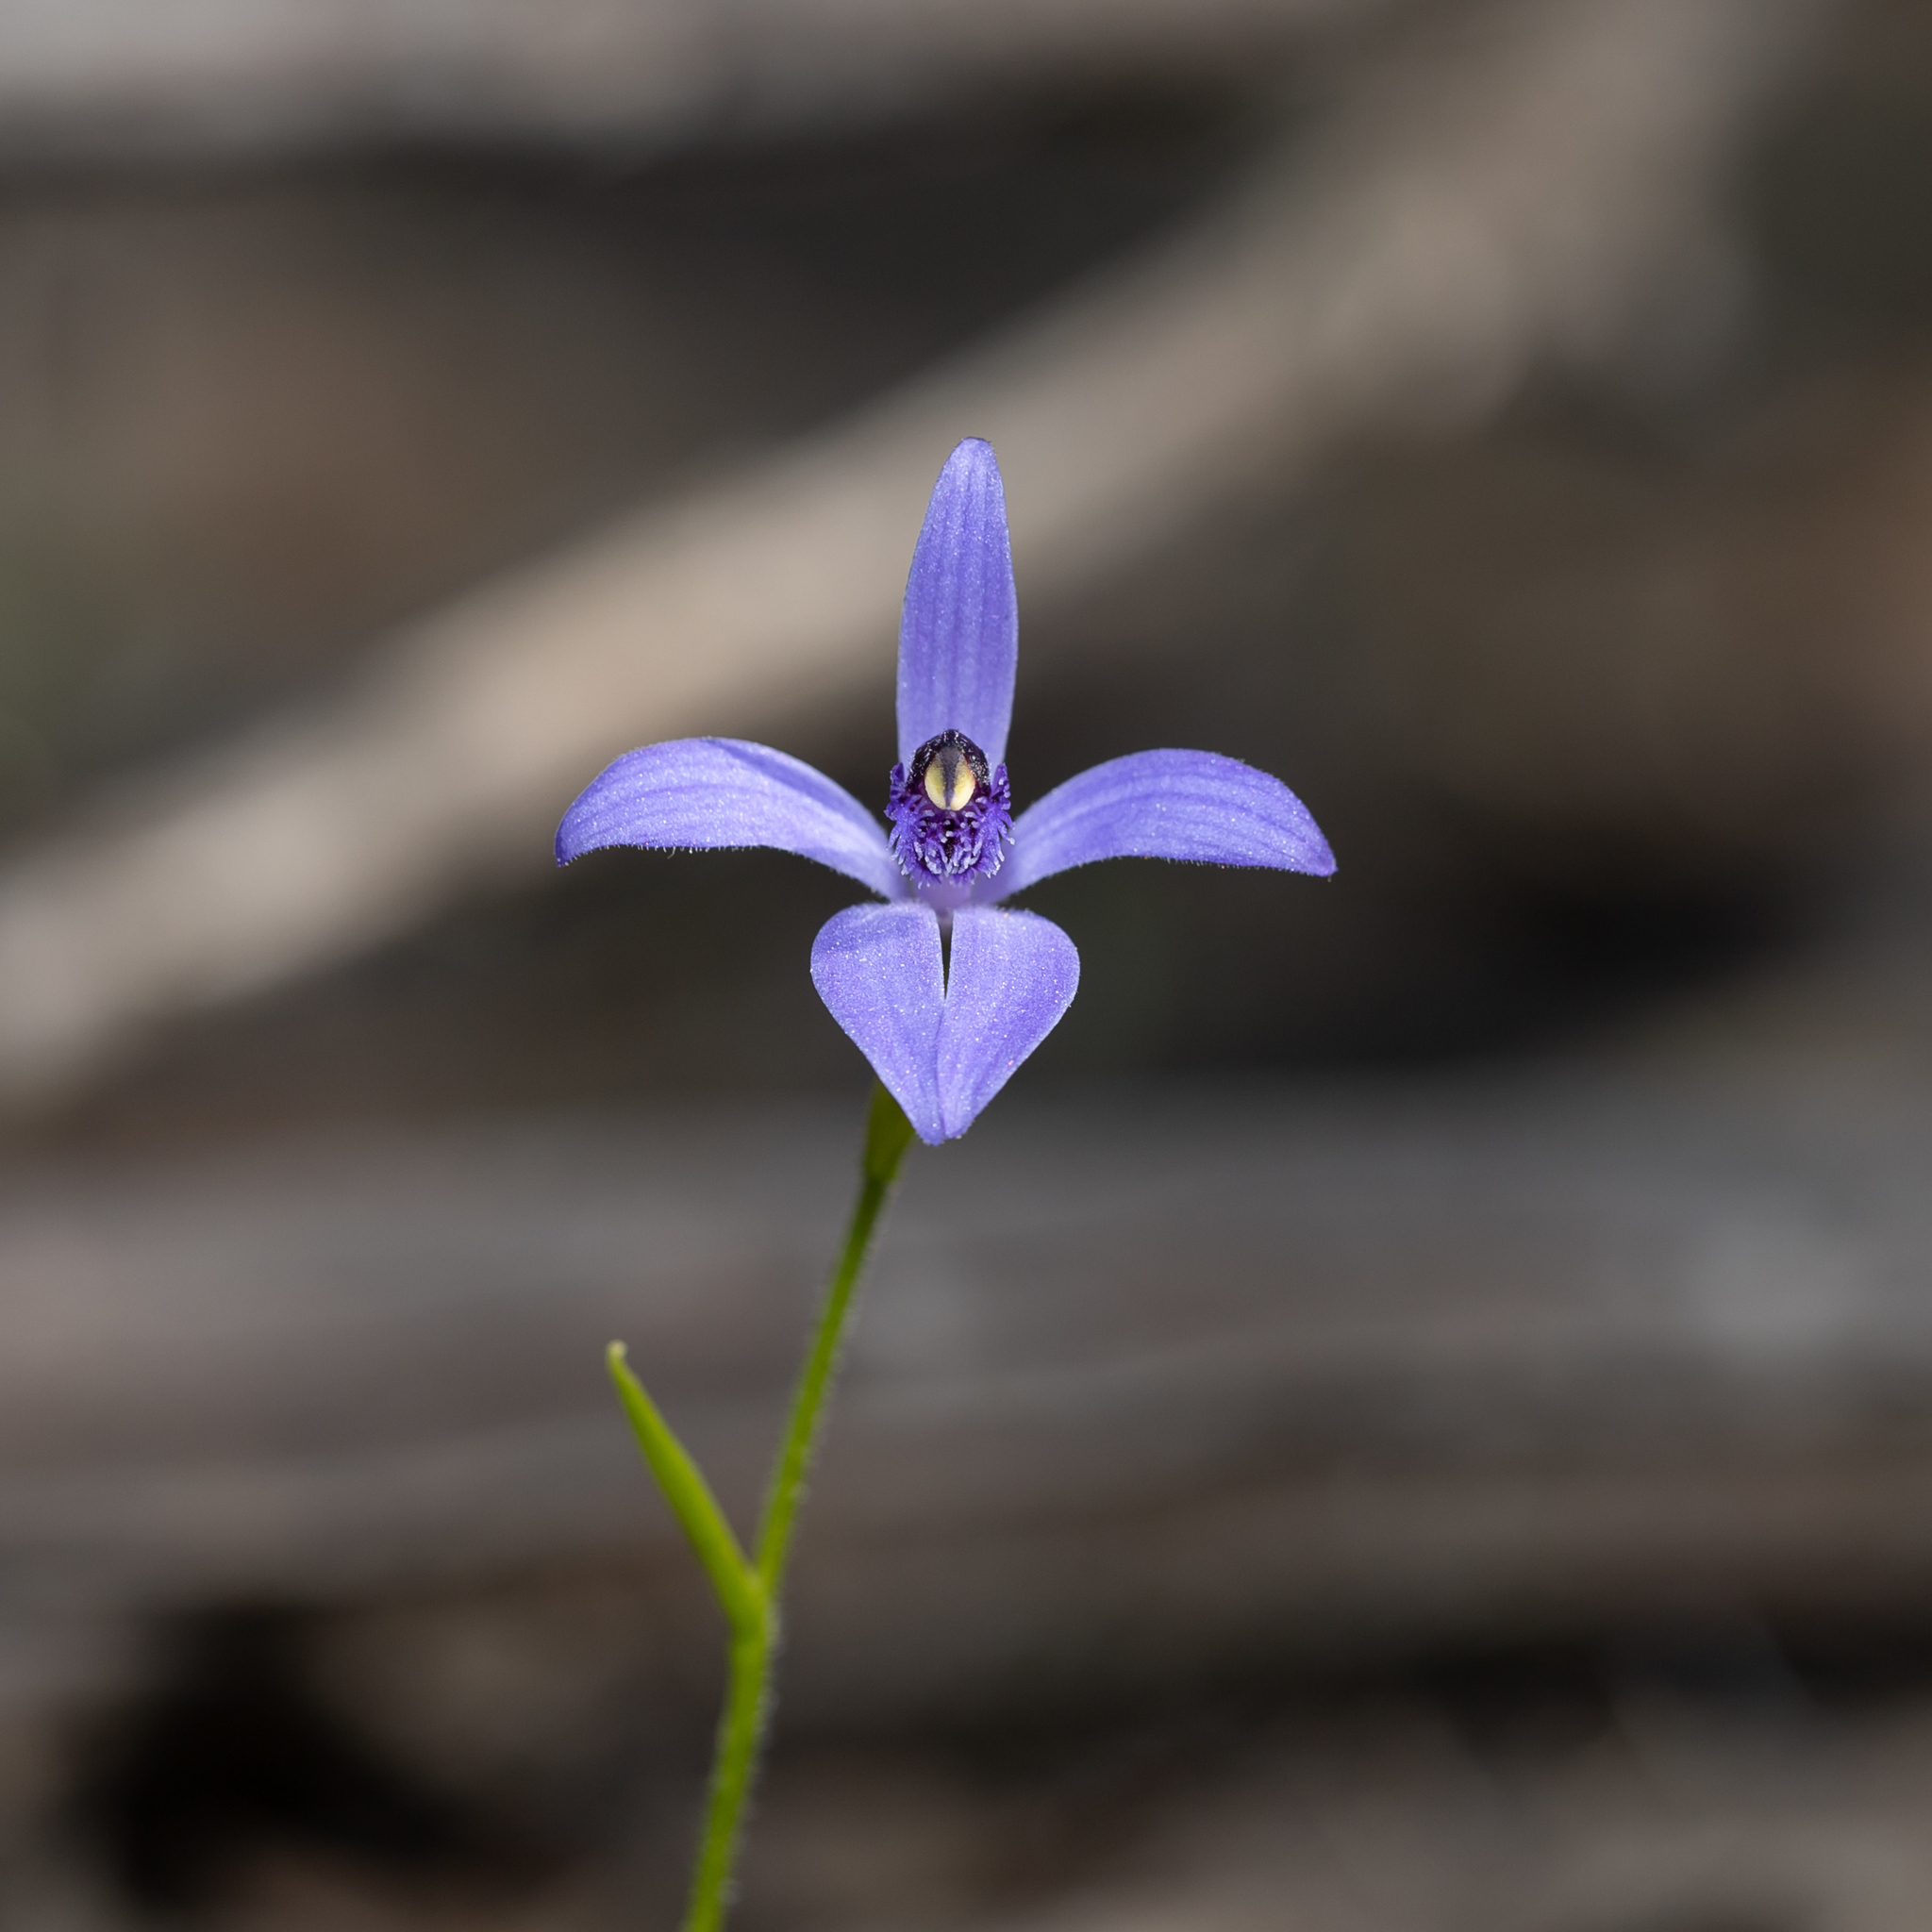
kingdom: Plantae
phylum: Tracheophyta
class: Liliopsida
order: Asparagales
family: Orchidaceae
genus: Pheladenia
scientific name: Pheladenia deformis
